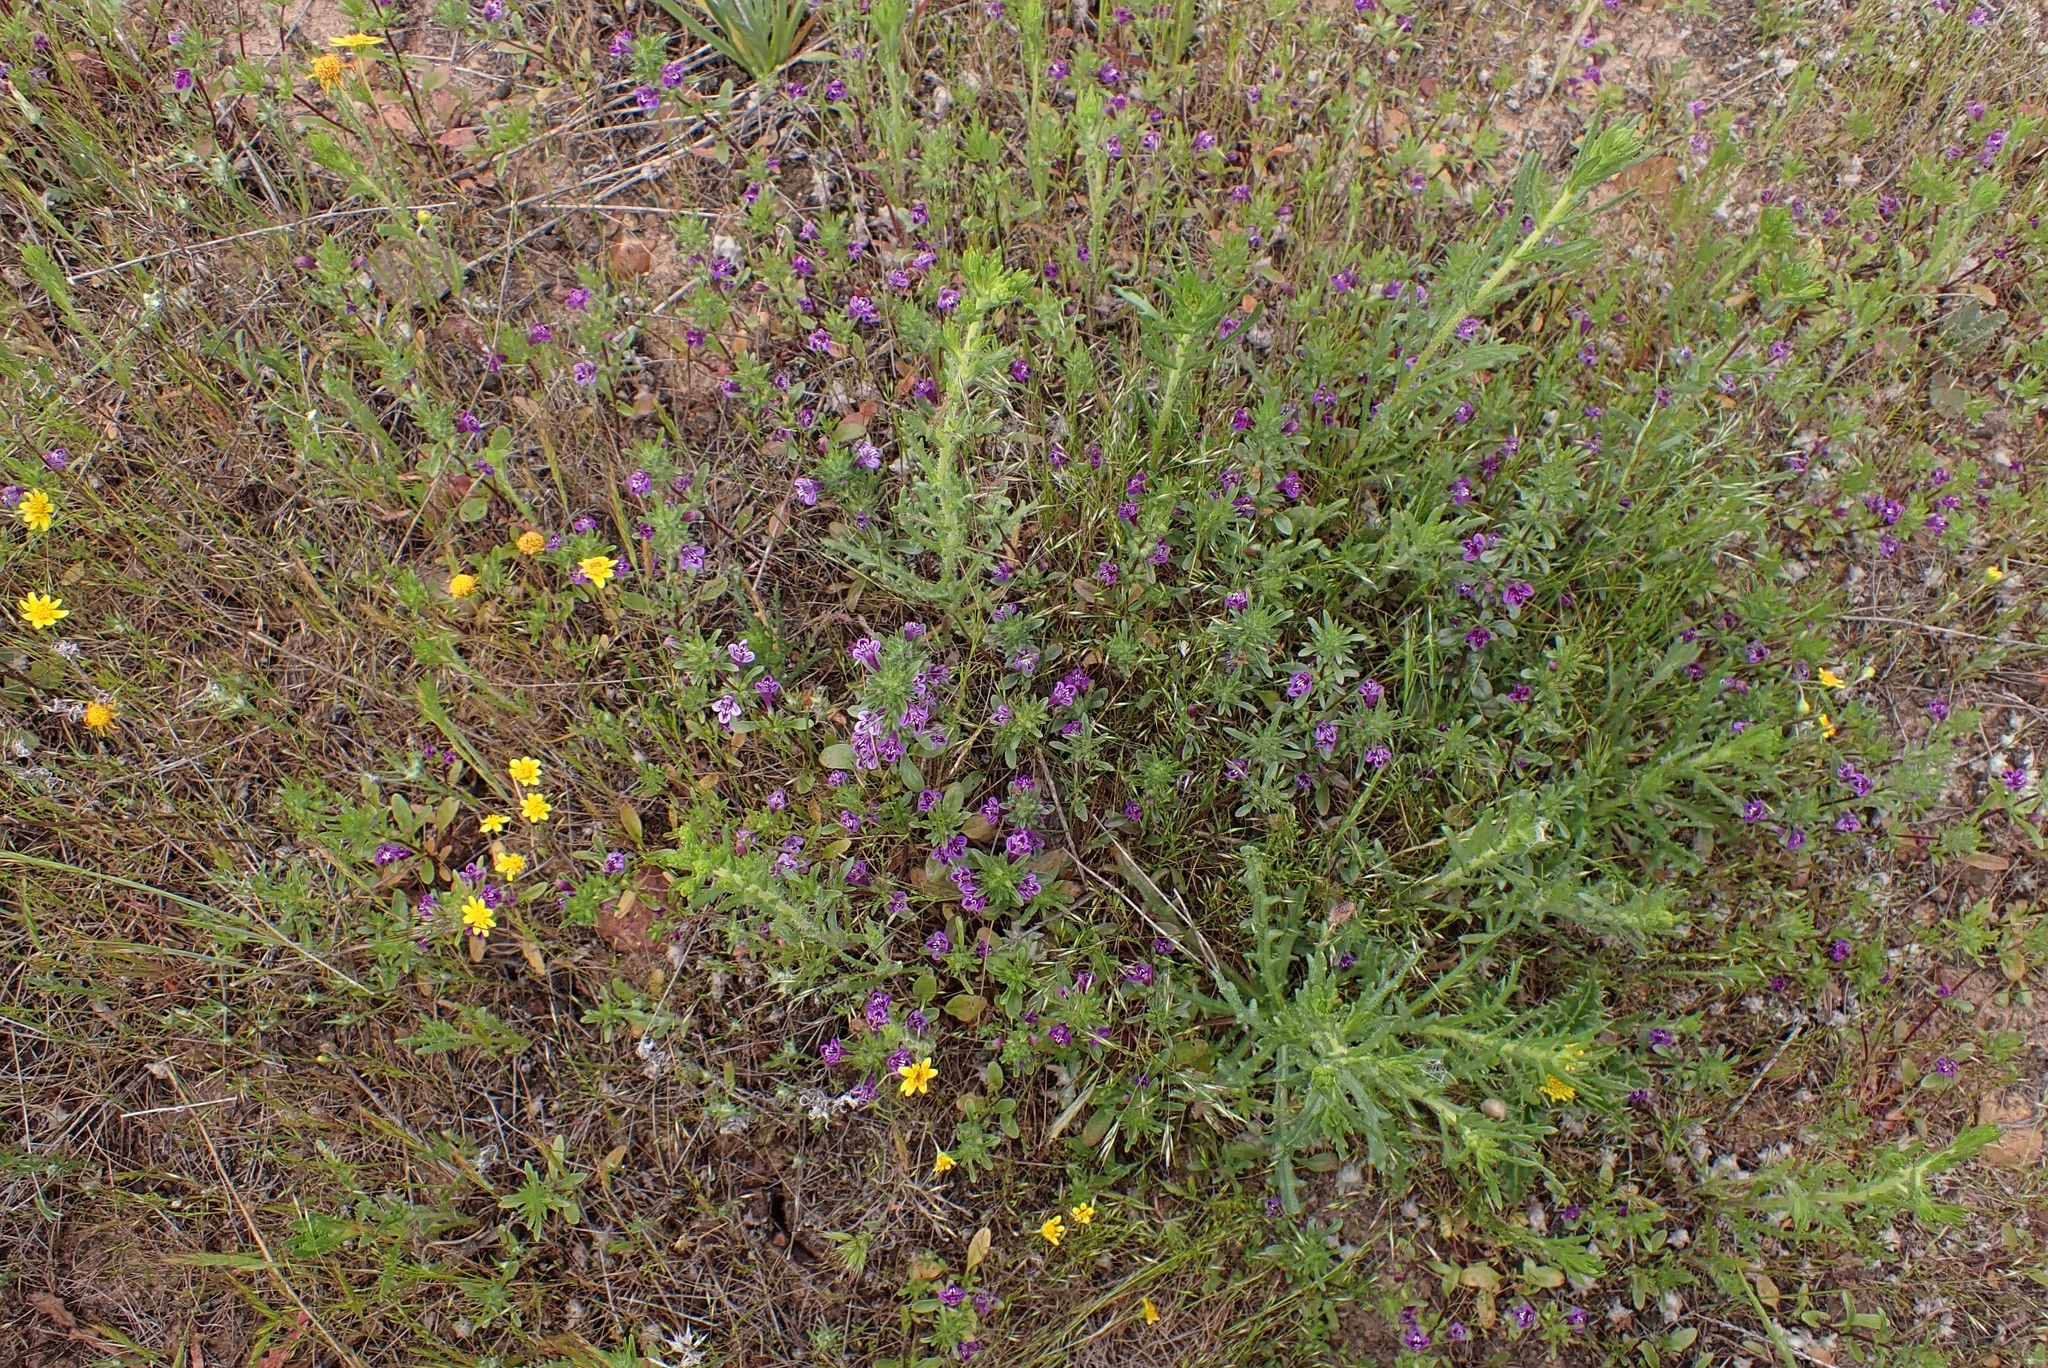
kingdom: Plantae
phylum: Tracheophyta
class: Magnoliopsida
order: Lamiales
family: Lamiaceae
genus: Pogogyne
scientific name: Pogogyne nudiuscula
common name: Otay mesa-mint
